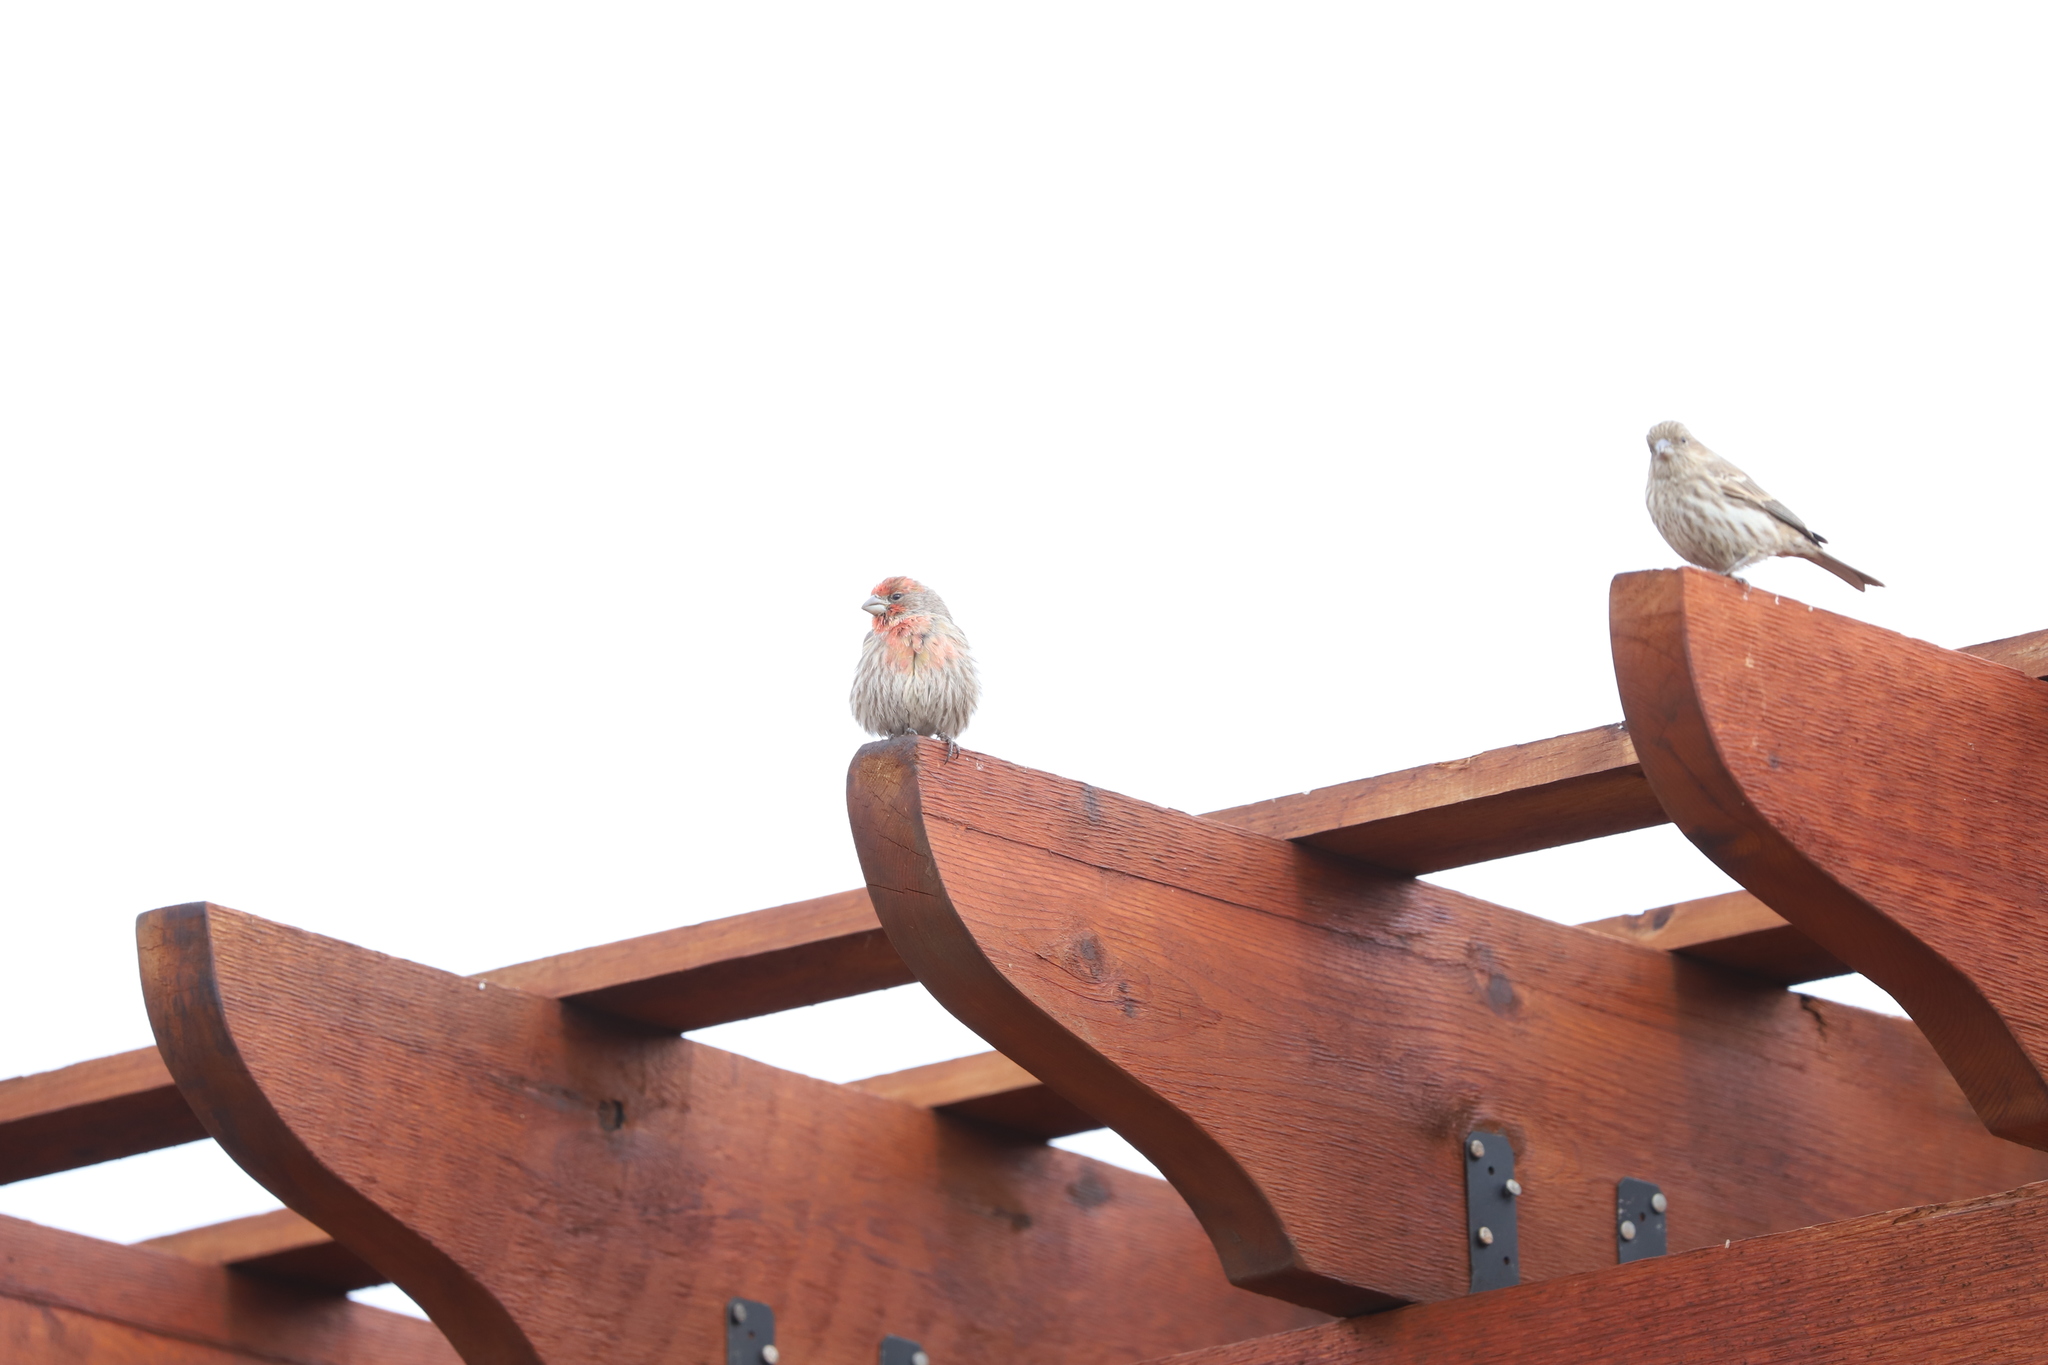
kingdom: Animalia
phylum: Chordata
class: Aves
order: Passeriformes
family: Fringillidae
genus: Haemorhous
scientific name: Haemorhous mexicanus
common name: House finch
